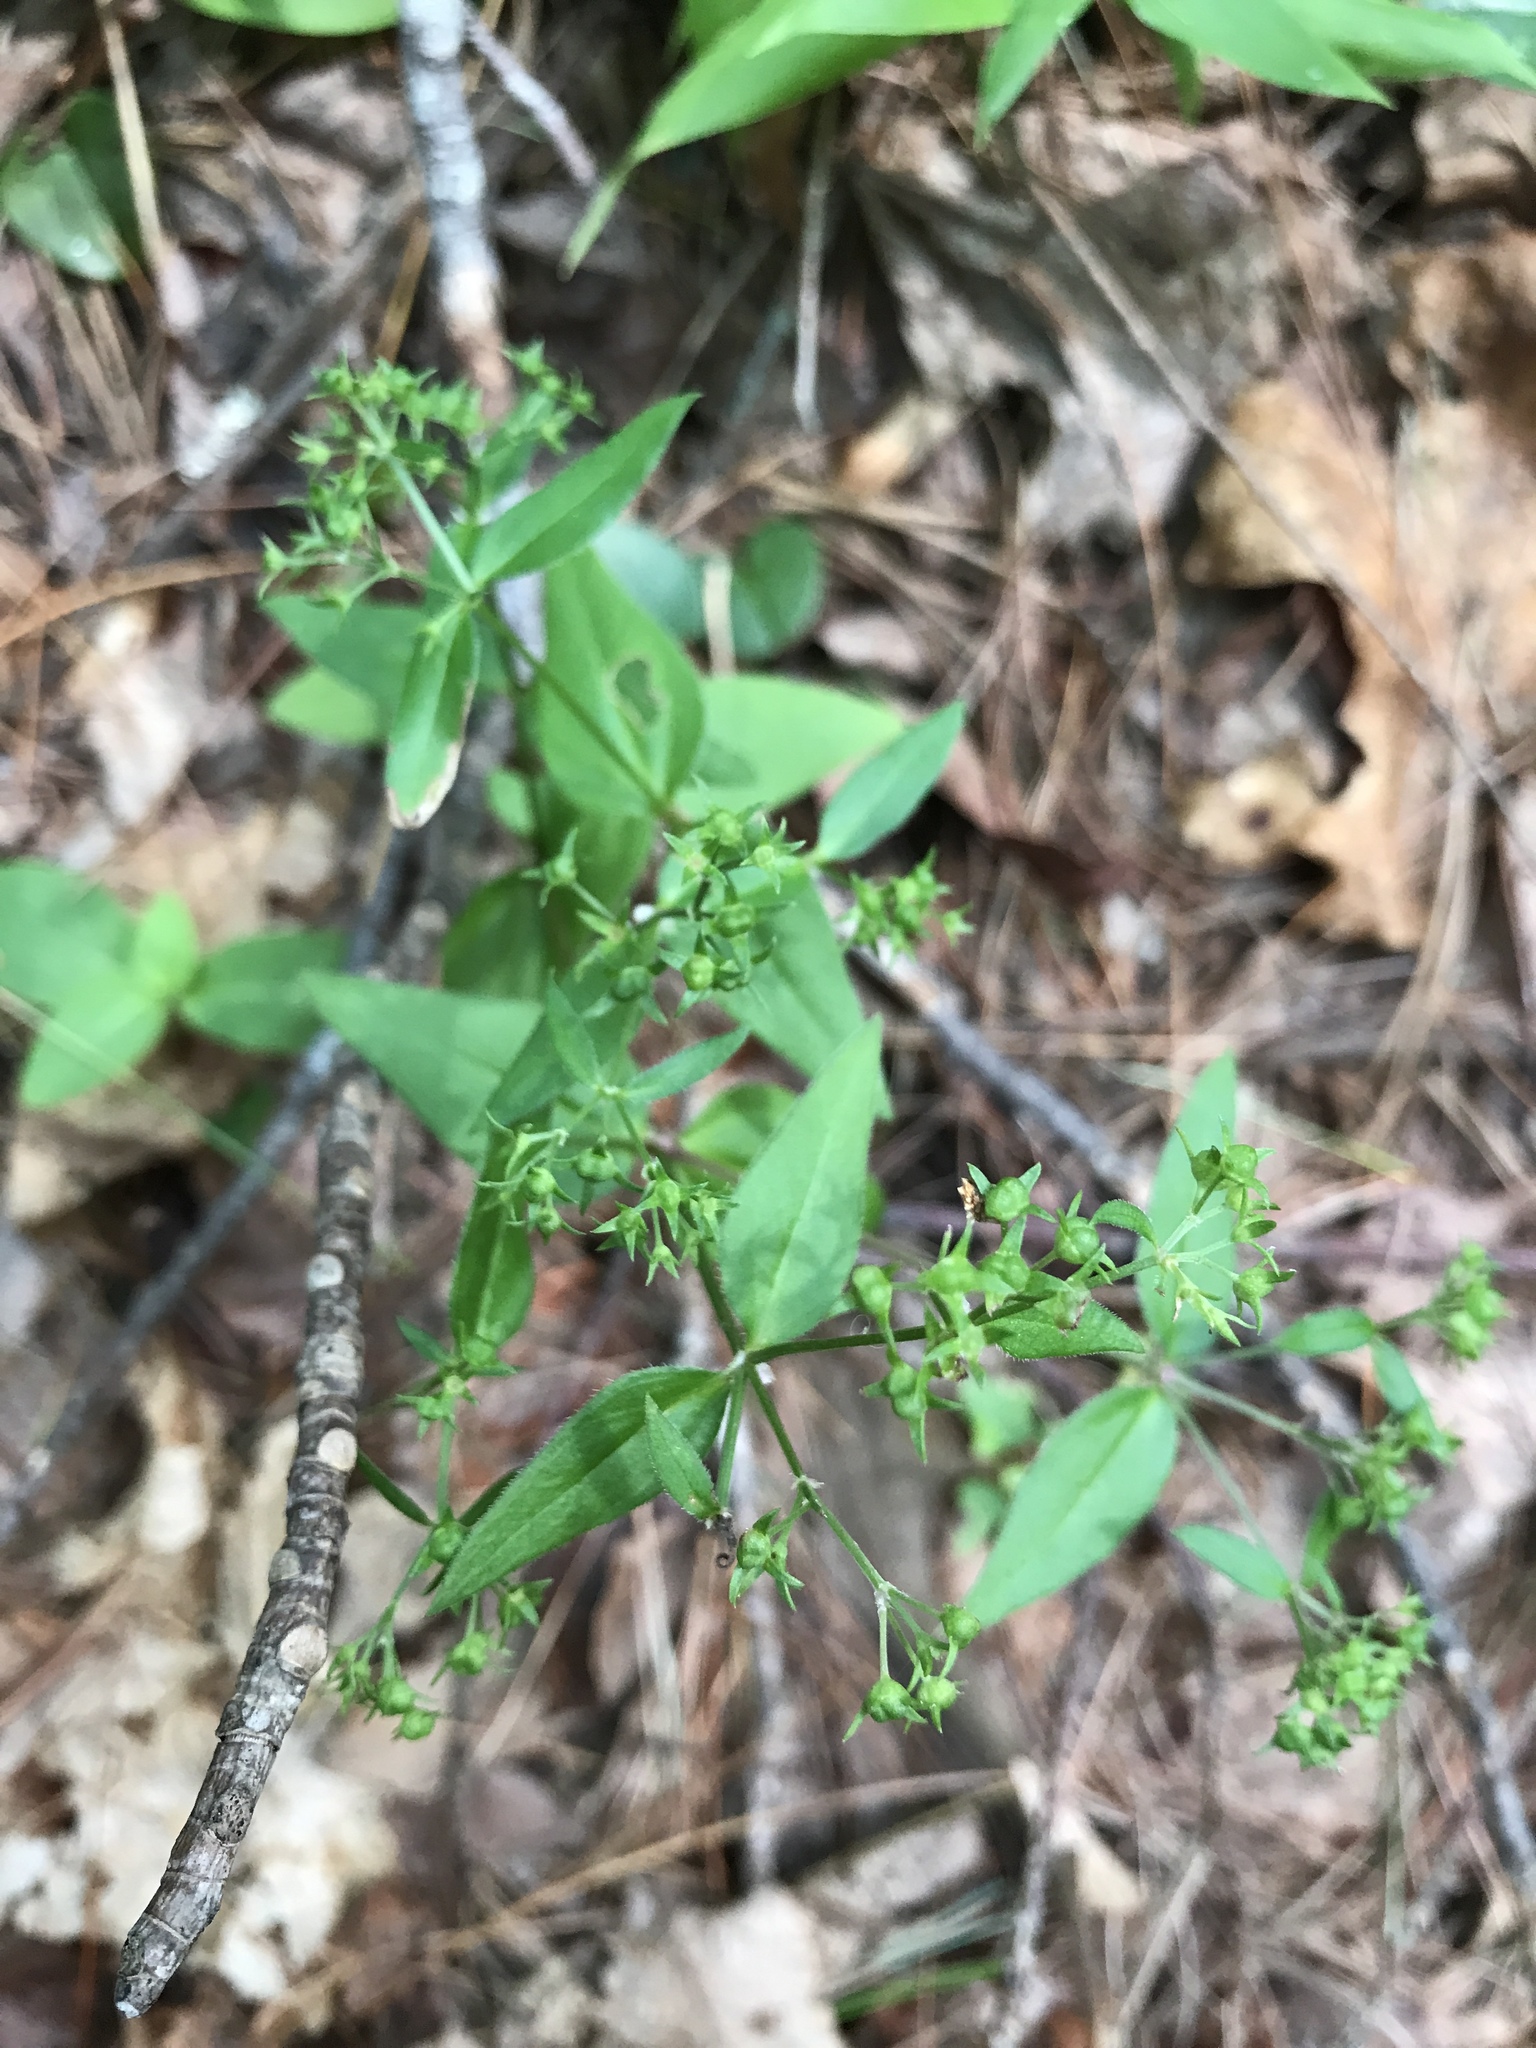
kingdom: Plantae
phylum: Tracheophyta
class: Magnoliopsida
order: Gentianales
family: Rubiaceae
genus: Houstonia
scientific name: Houstonia purpurea
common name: Summer bluet
